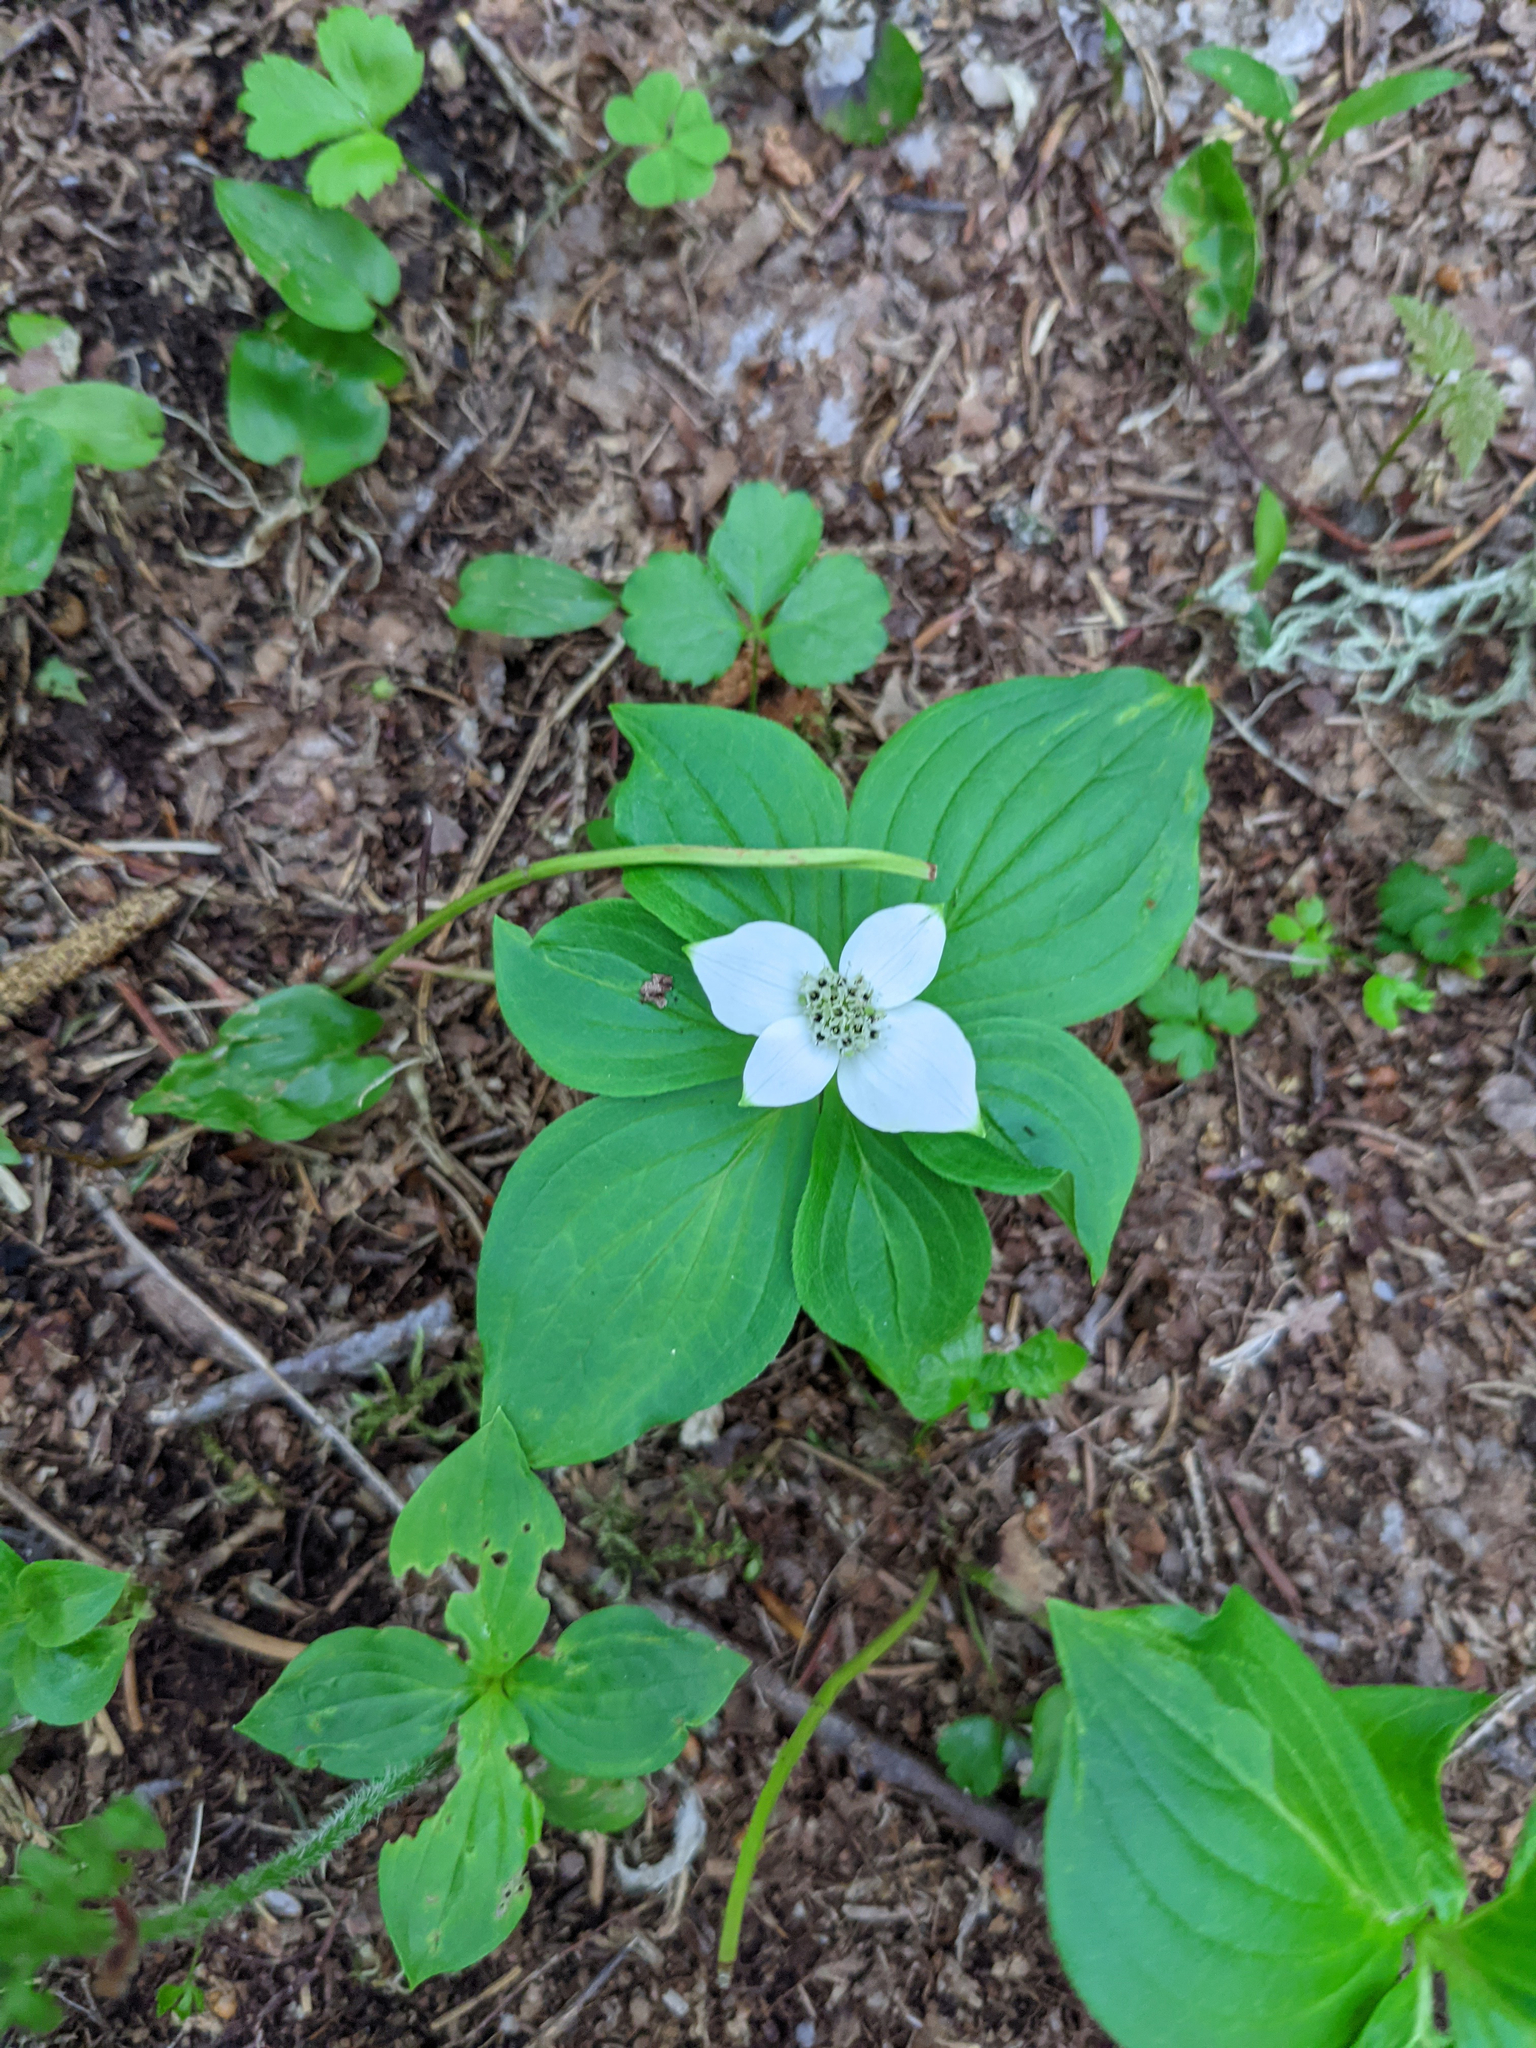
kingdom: Plantae
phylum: Tracheophyta
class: Magnoliopsida
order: Cornales
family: Cornaceae
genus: Cornus
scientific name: Cornus canadensis
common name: Creeping dogwood
